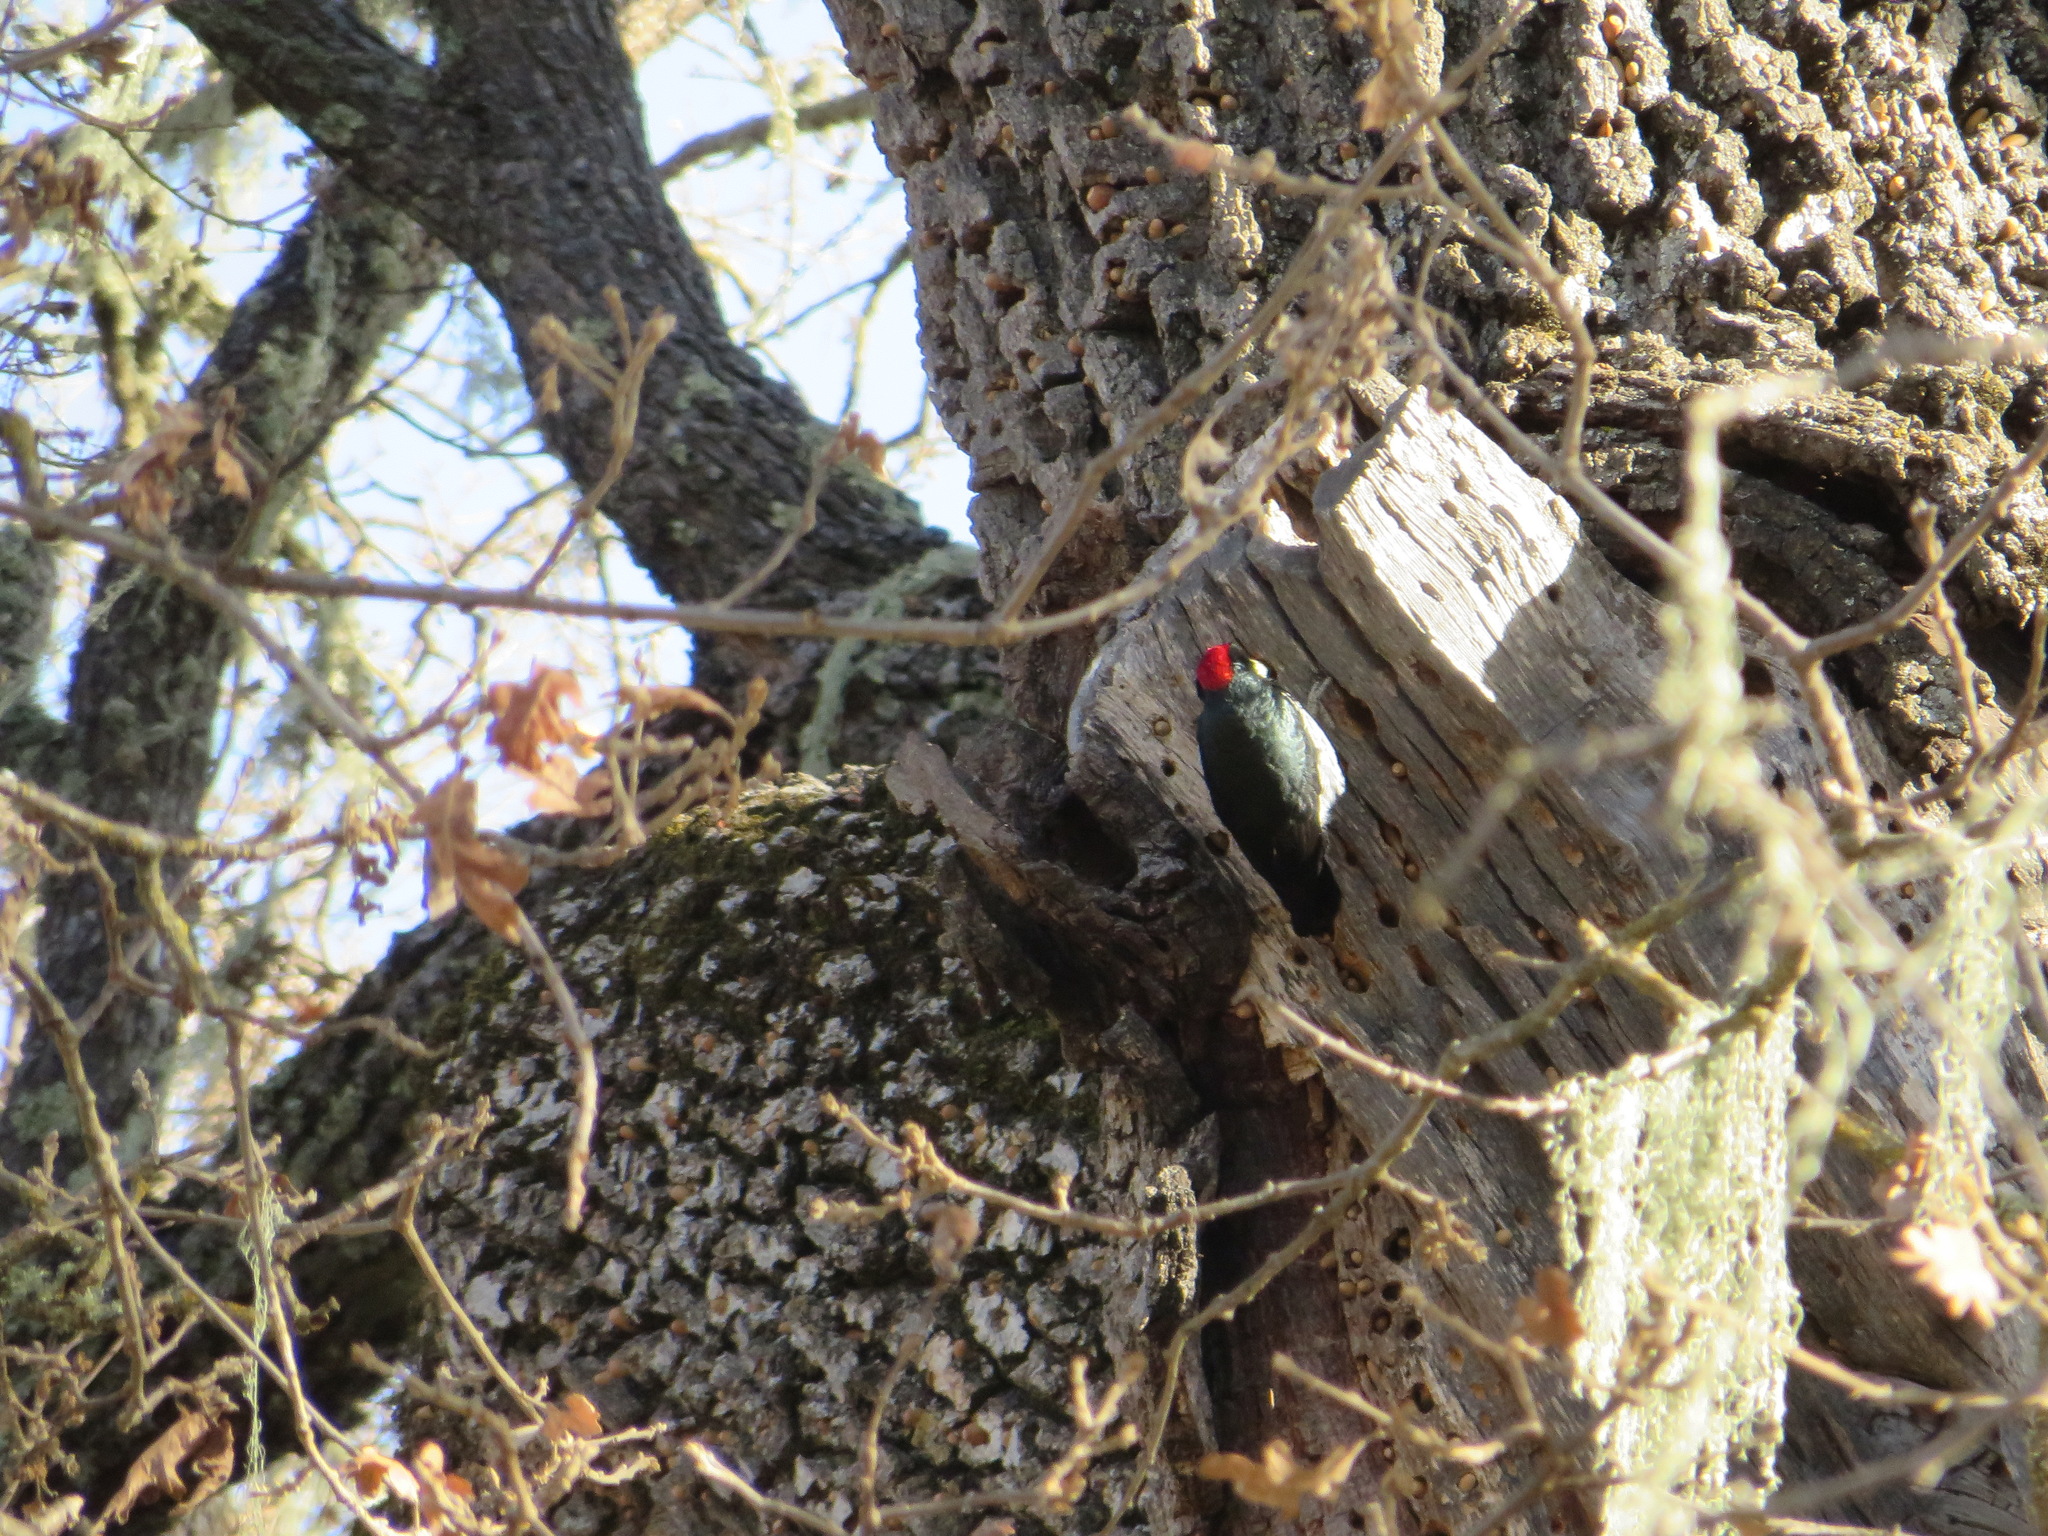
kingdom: Animalia
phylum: Chordata
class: Aves
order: Piciformes
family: Picidae
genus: Melanerpes
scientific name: Melanerpes formicivorus
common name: Acorn woodpecker
